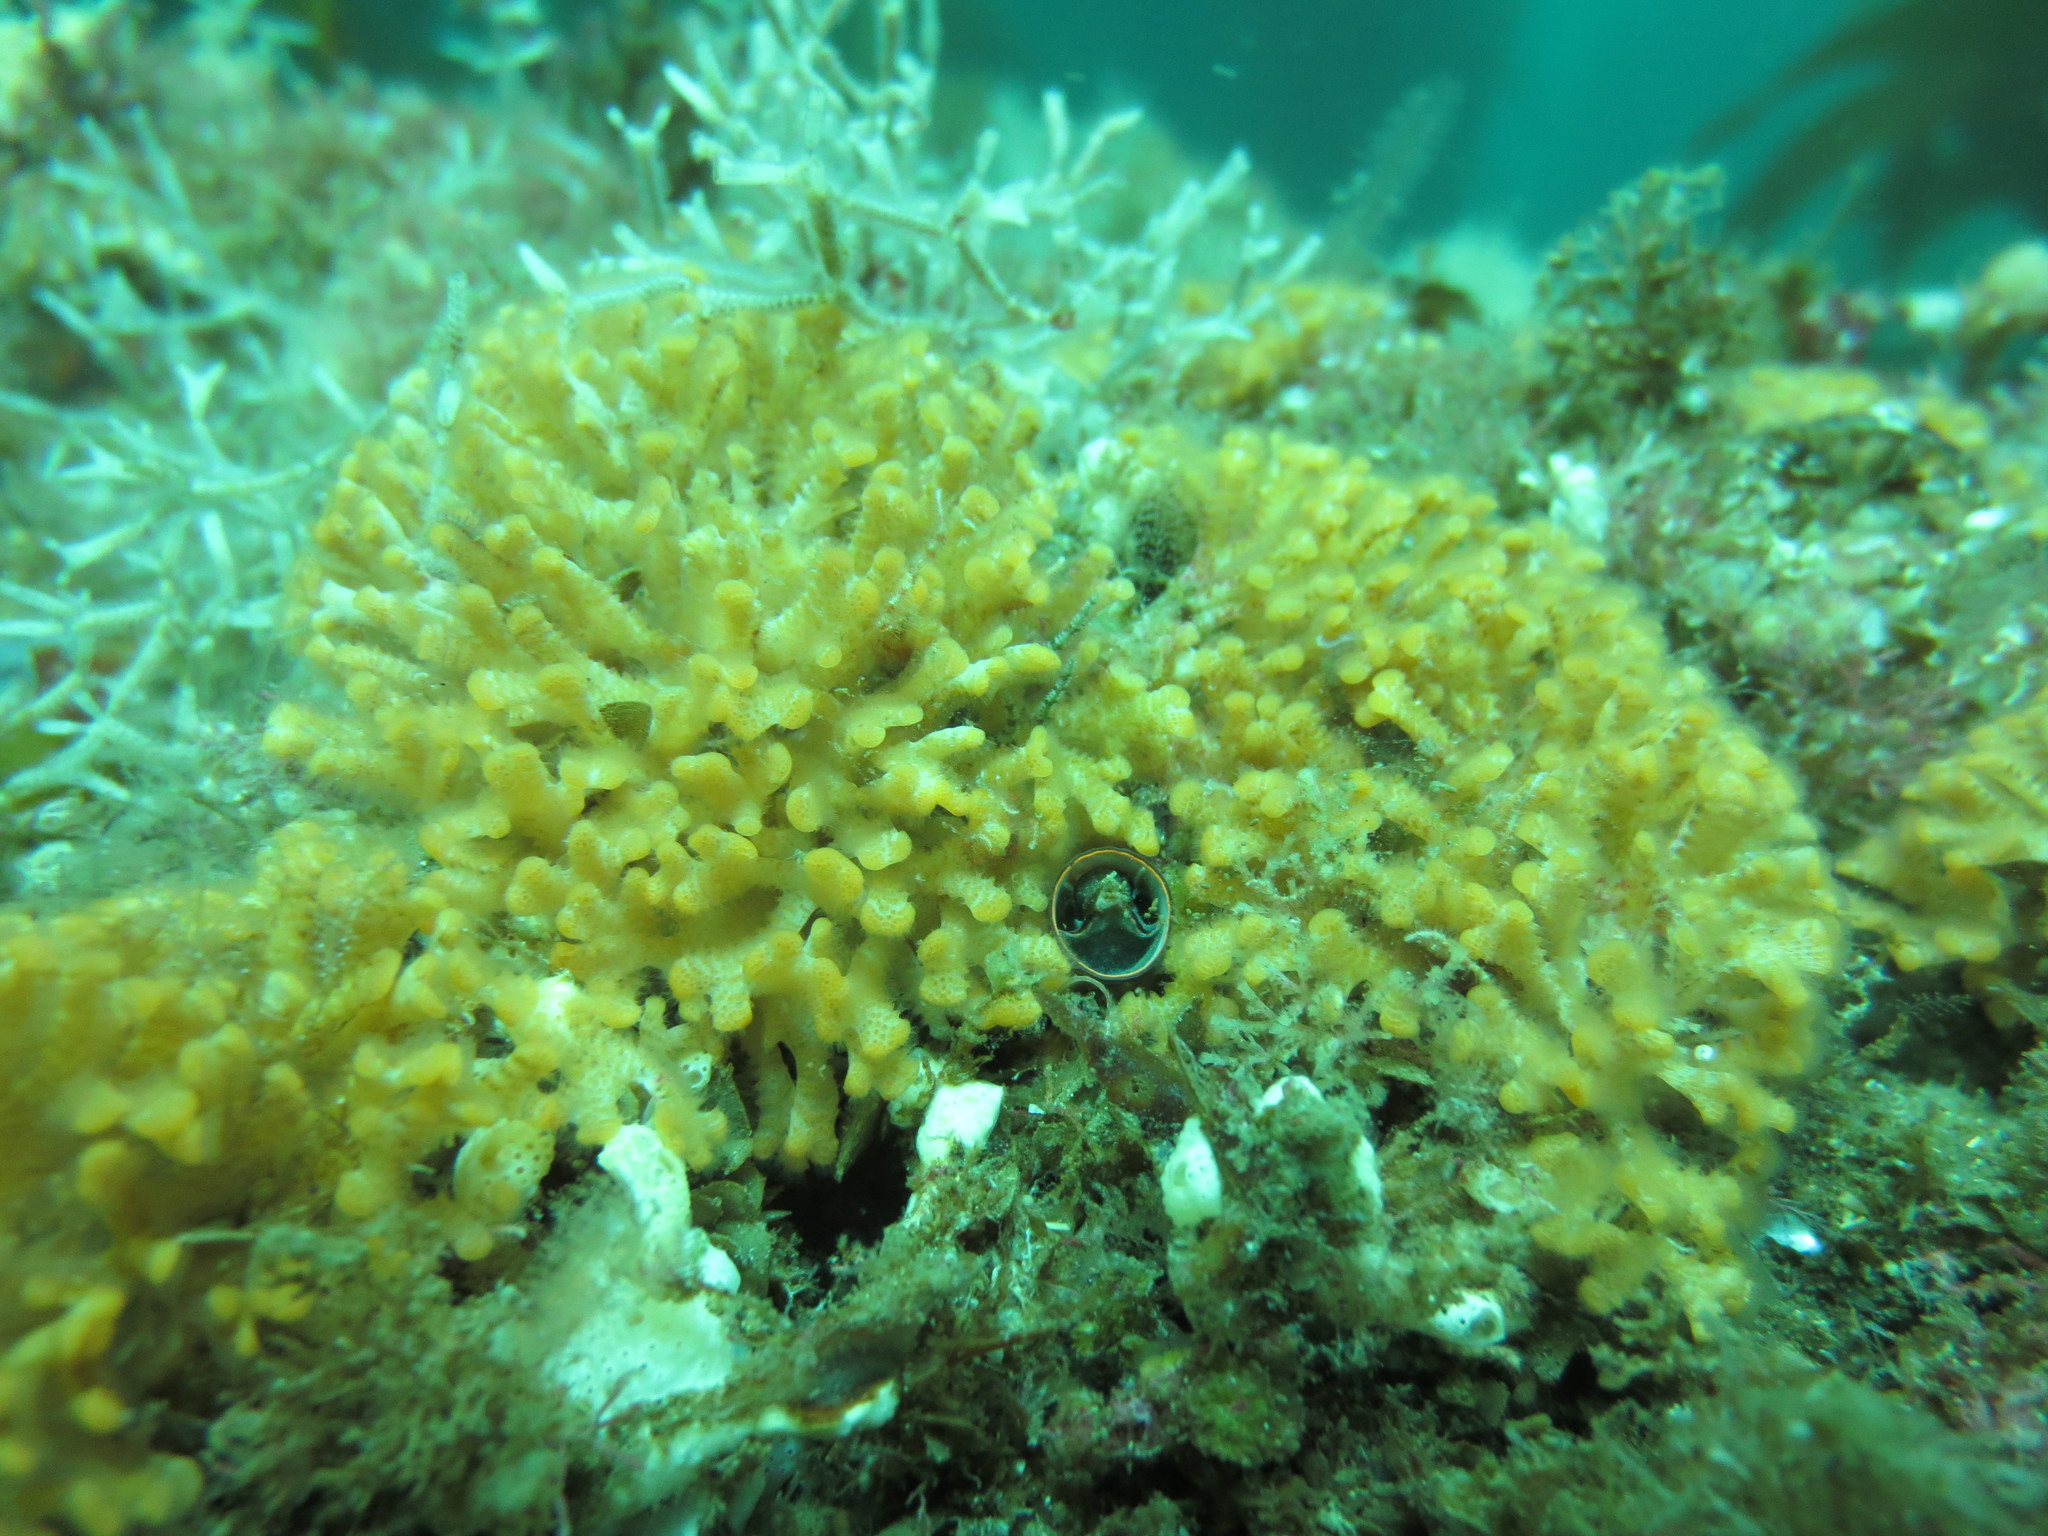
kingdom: Animalia
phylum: Mollusca
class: Gastropoda
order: Littorinimorpha
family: Vermetidae
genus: Thylacodes
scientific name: Thylacodes squamigerus
